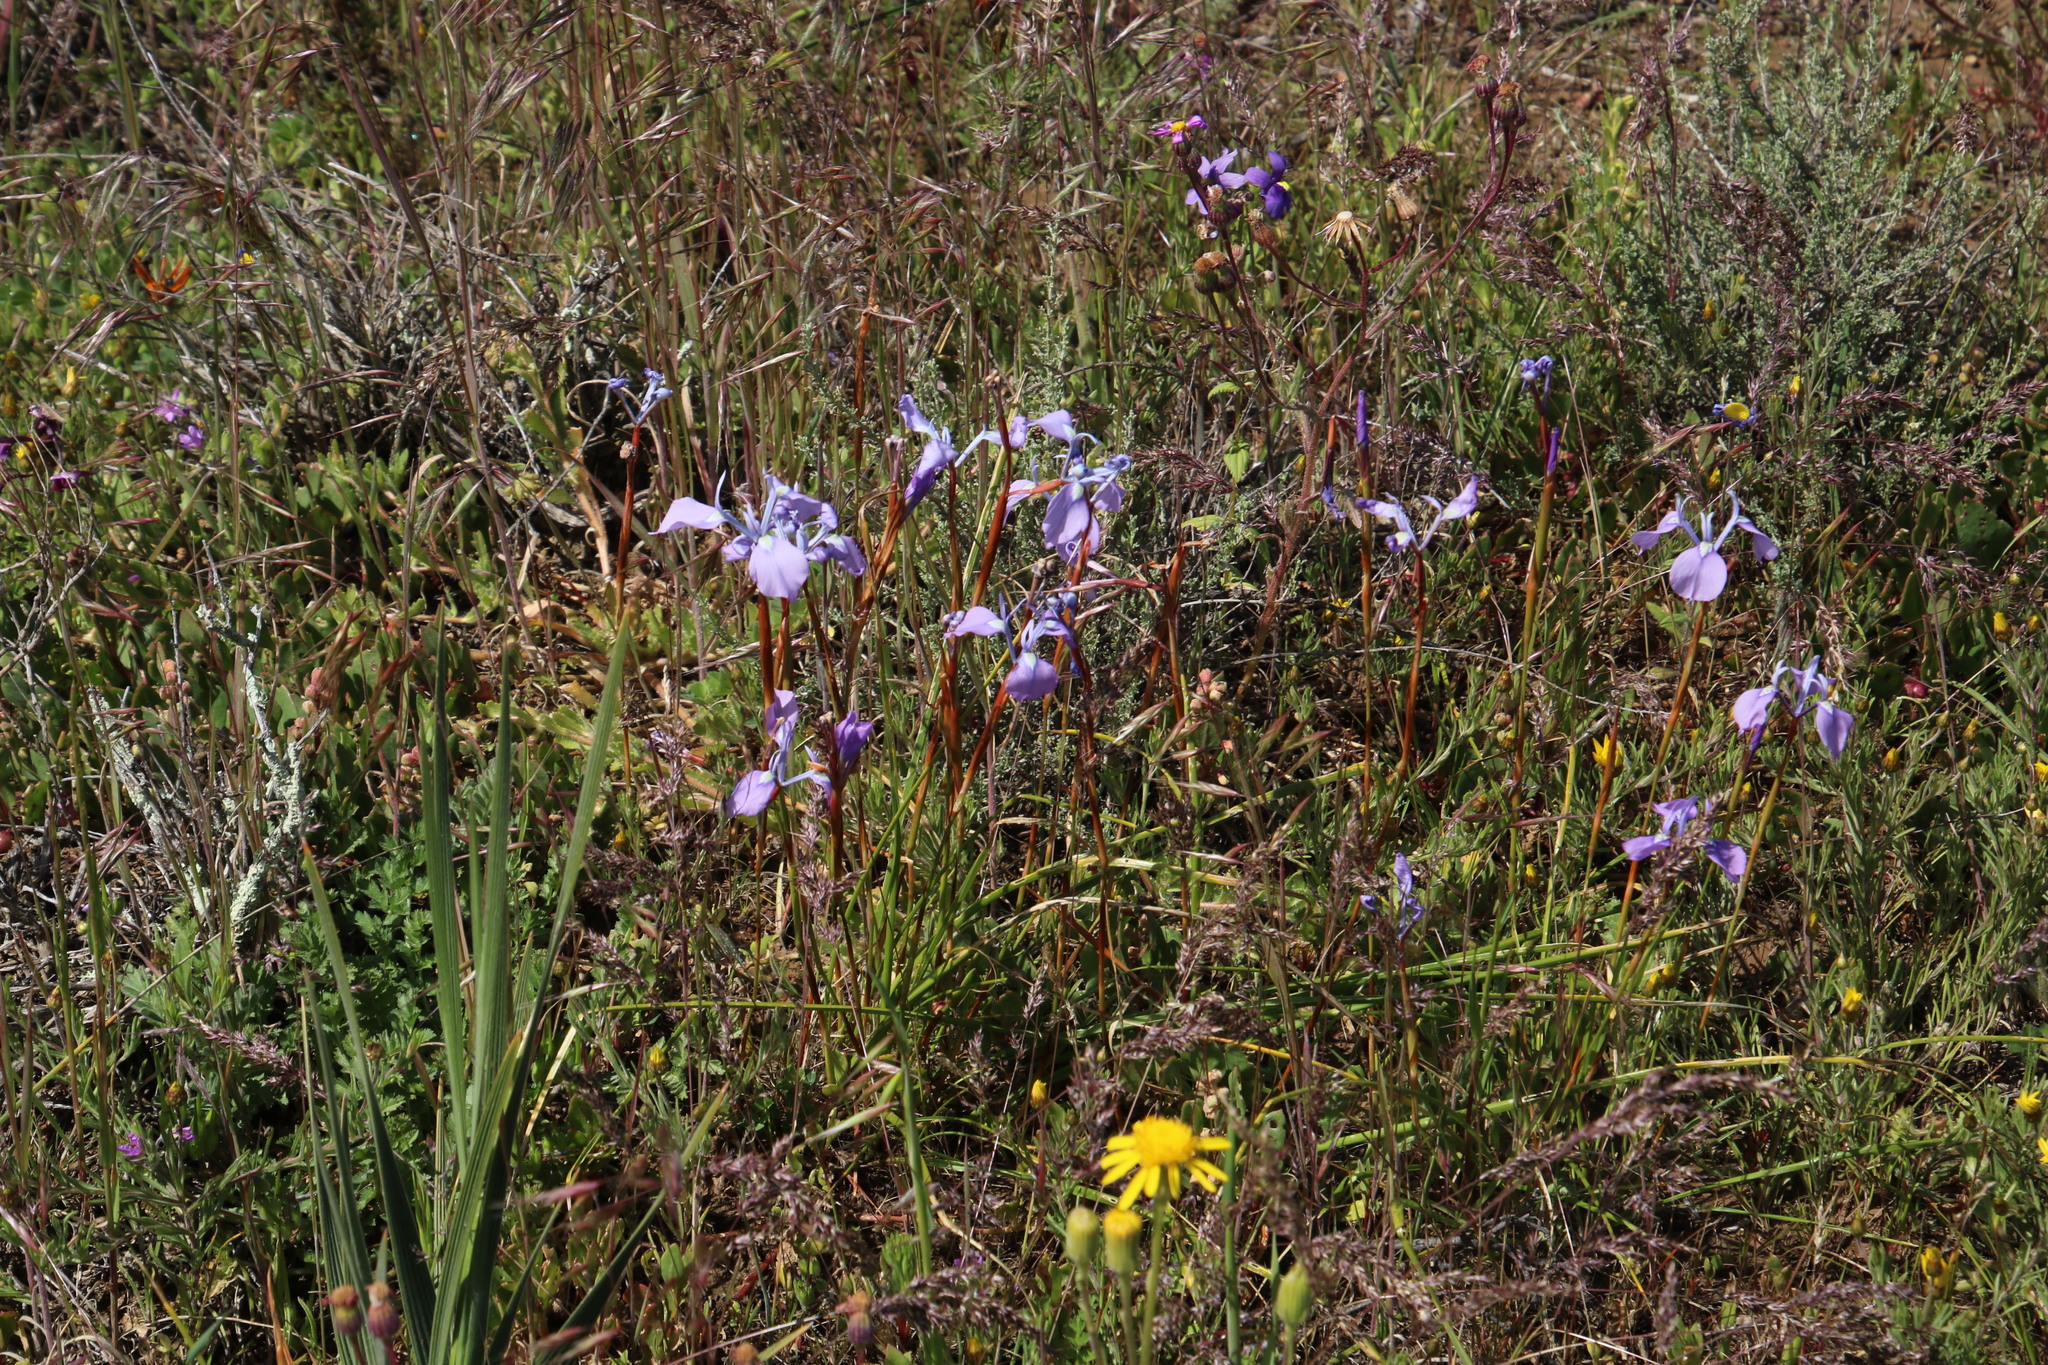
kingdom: Plantae
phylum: Tracheophyta
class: Liliopsida
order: Asparagales
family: Iridaceae
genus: Moraea
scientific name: Moraea tripetala
